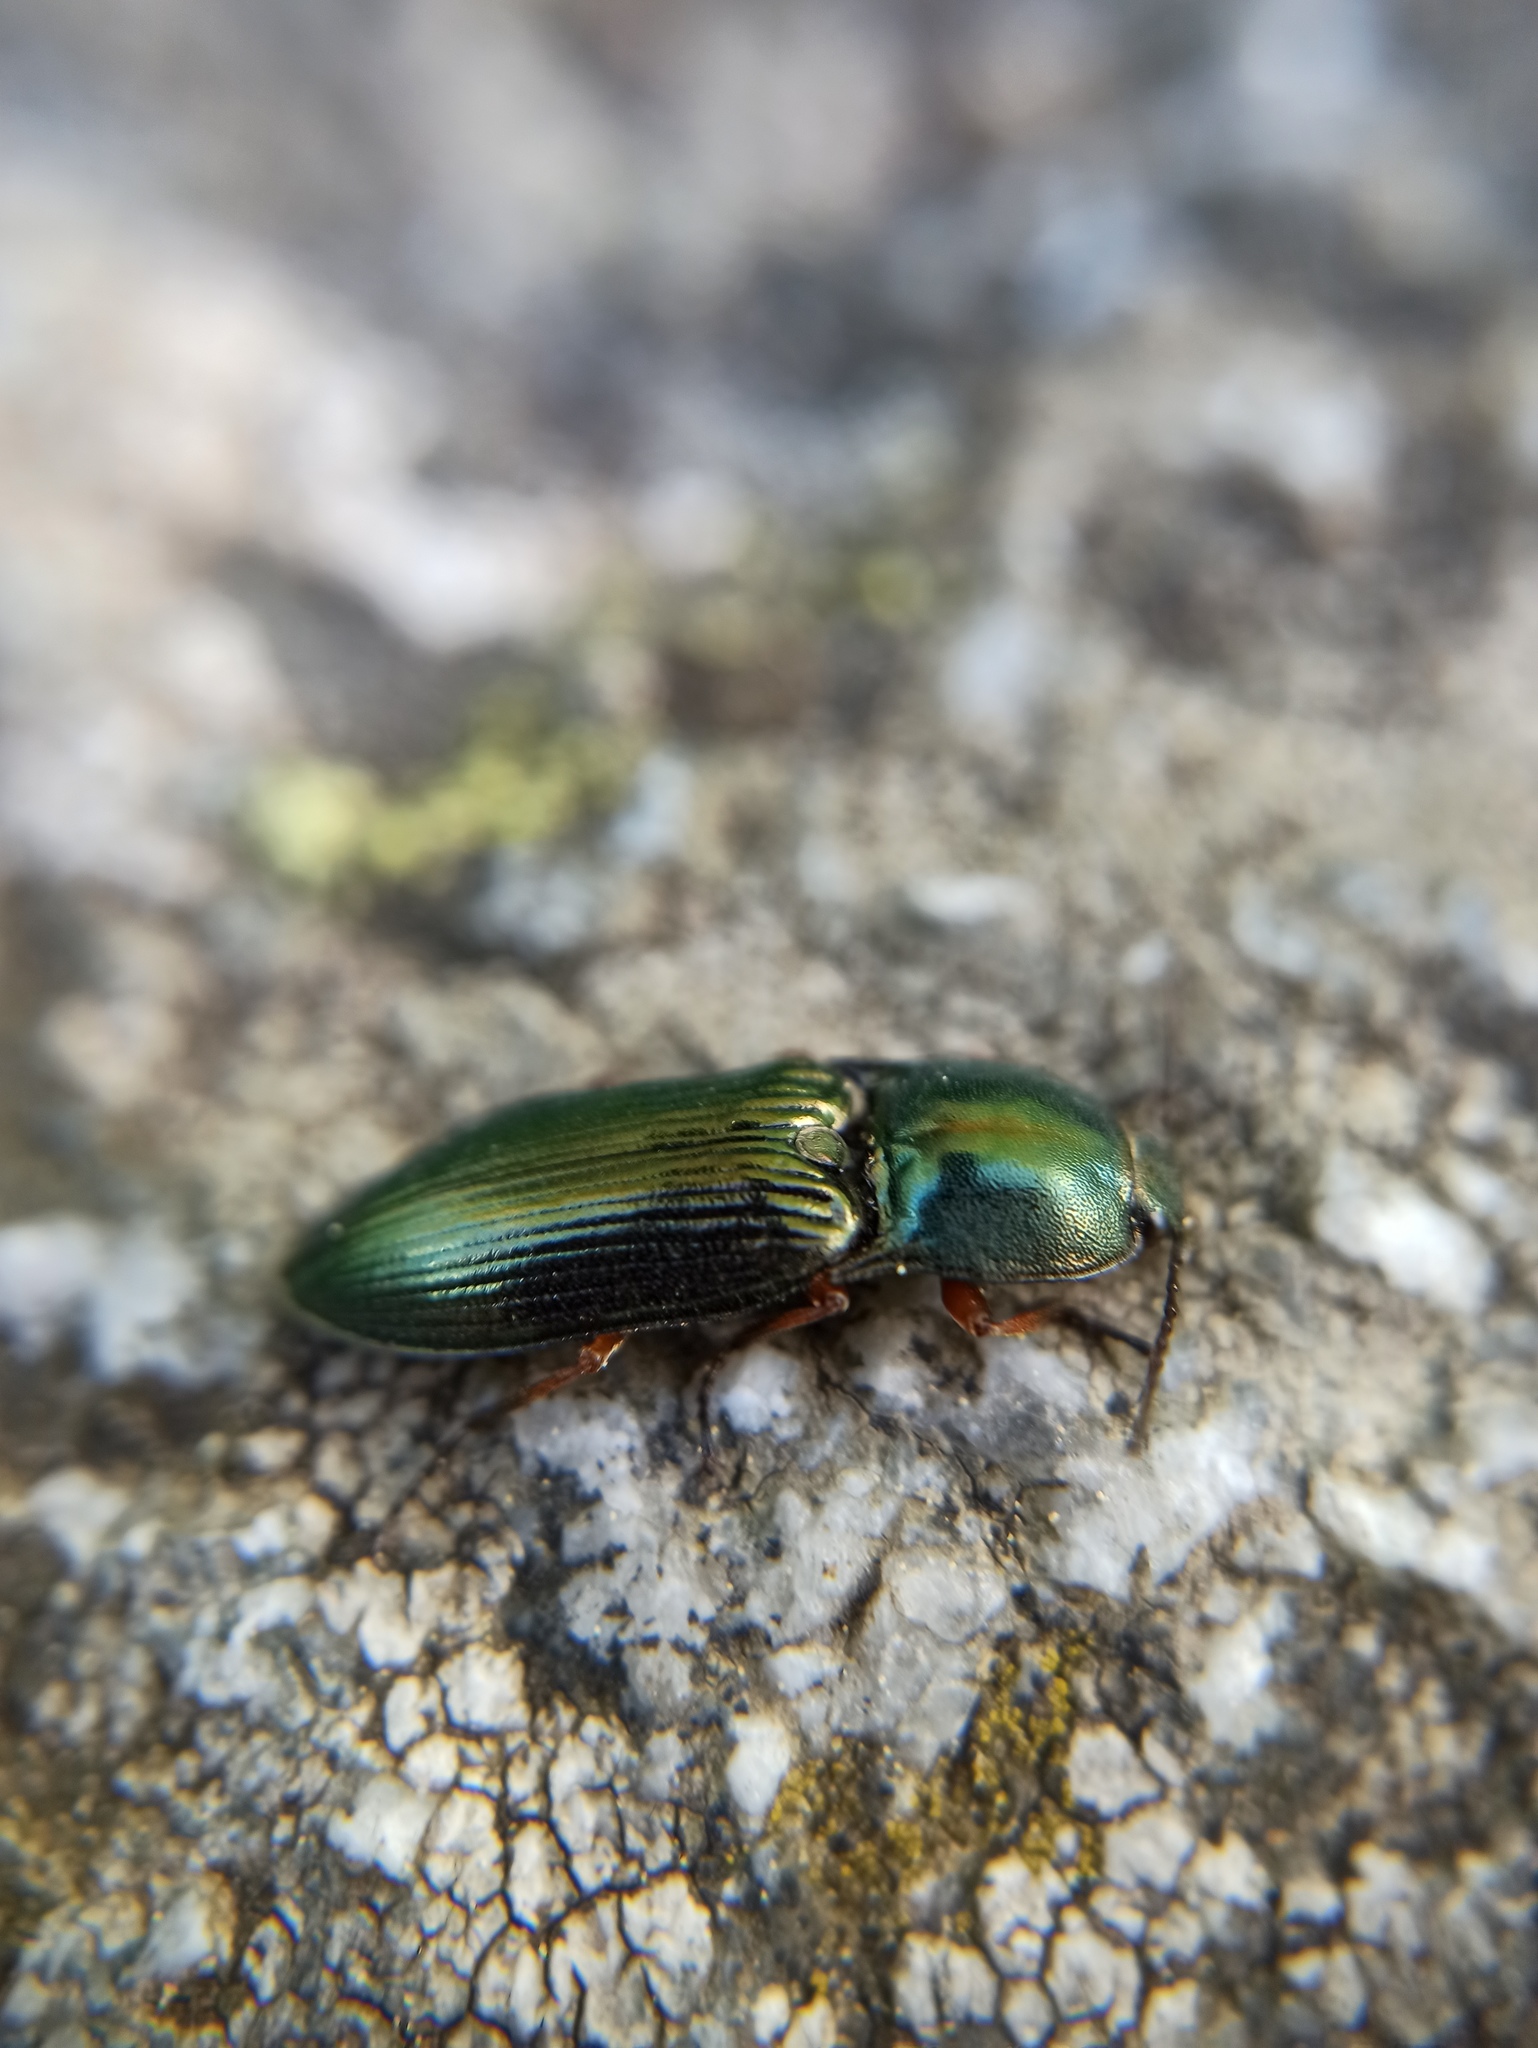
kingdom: Animalia
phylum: Arthropoda
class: Insecta
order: Coleoptera
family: Elateridae
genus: Selatosomus
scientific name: Selatosomus aeneus
